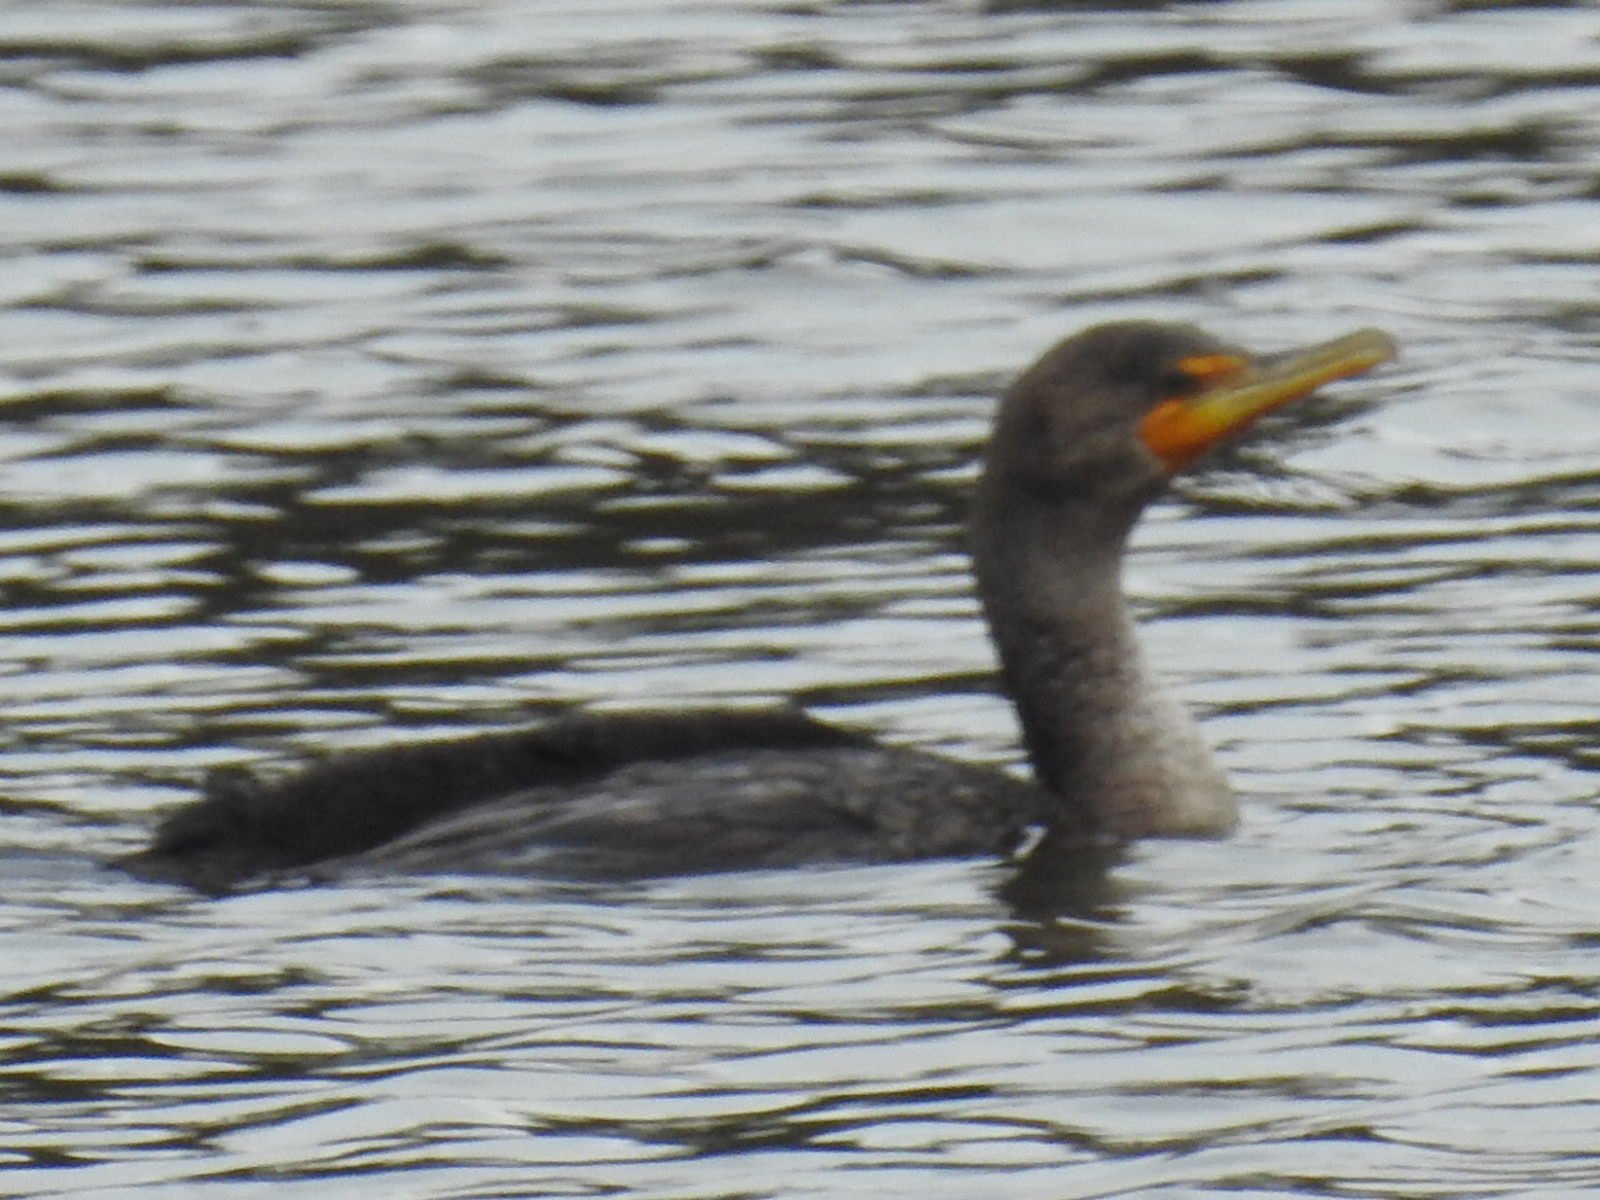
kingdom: Animalia
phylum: Chordata
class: Aves
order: Suliformes
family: Phalacrocoracidae
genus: Phalacrocorax
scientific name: Phalacrocorax auritus
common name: Double-crested cormorant
